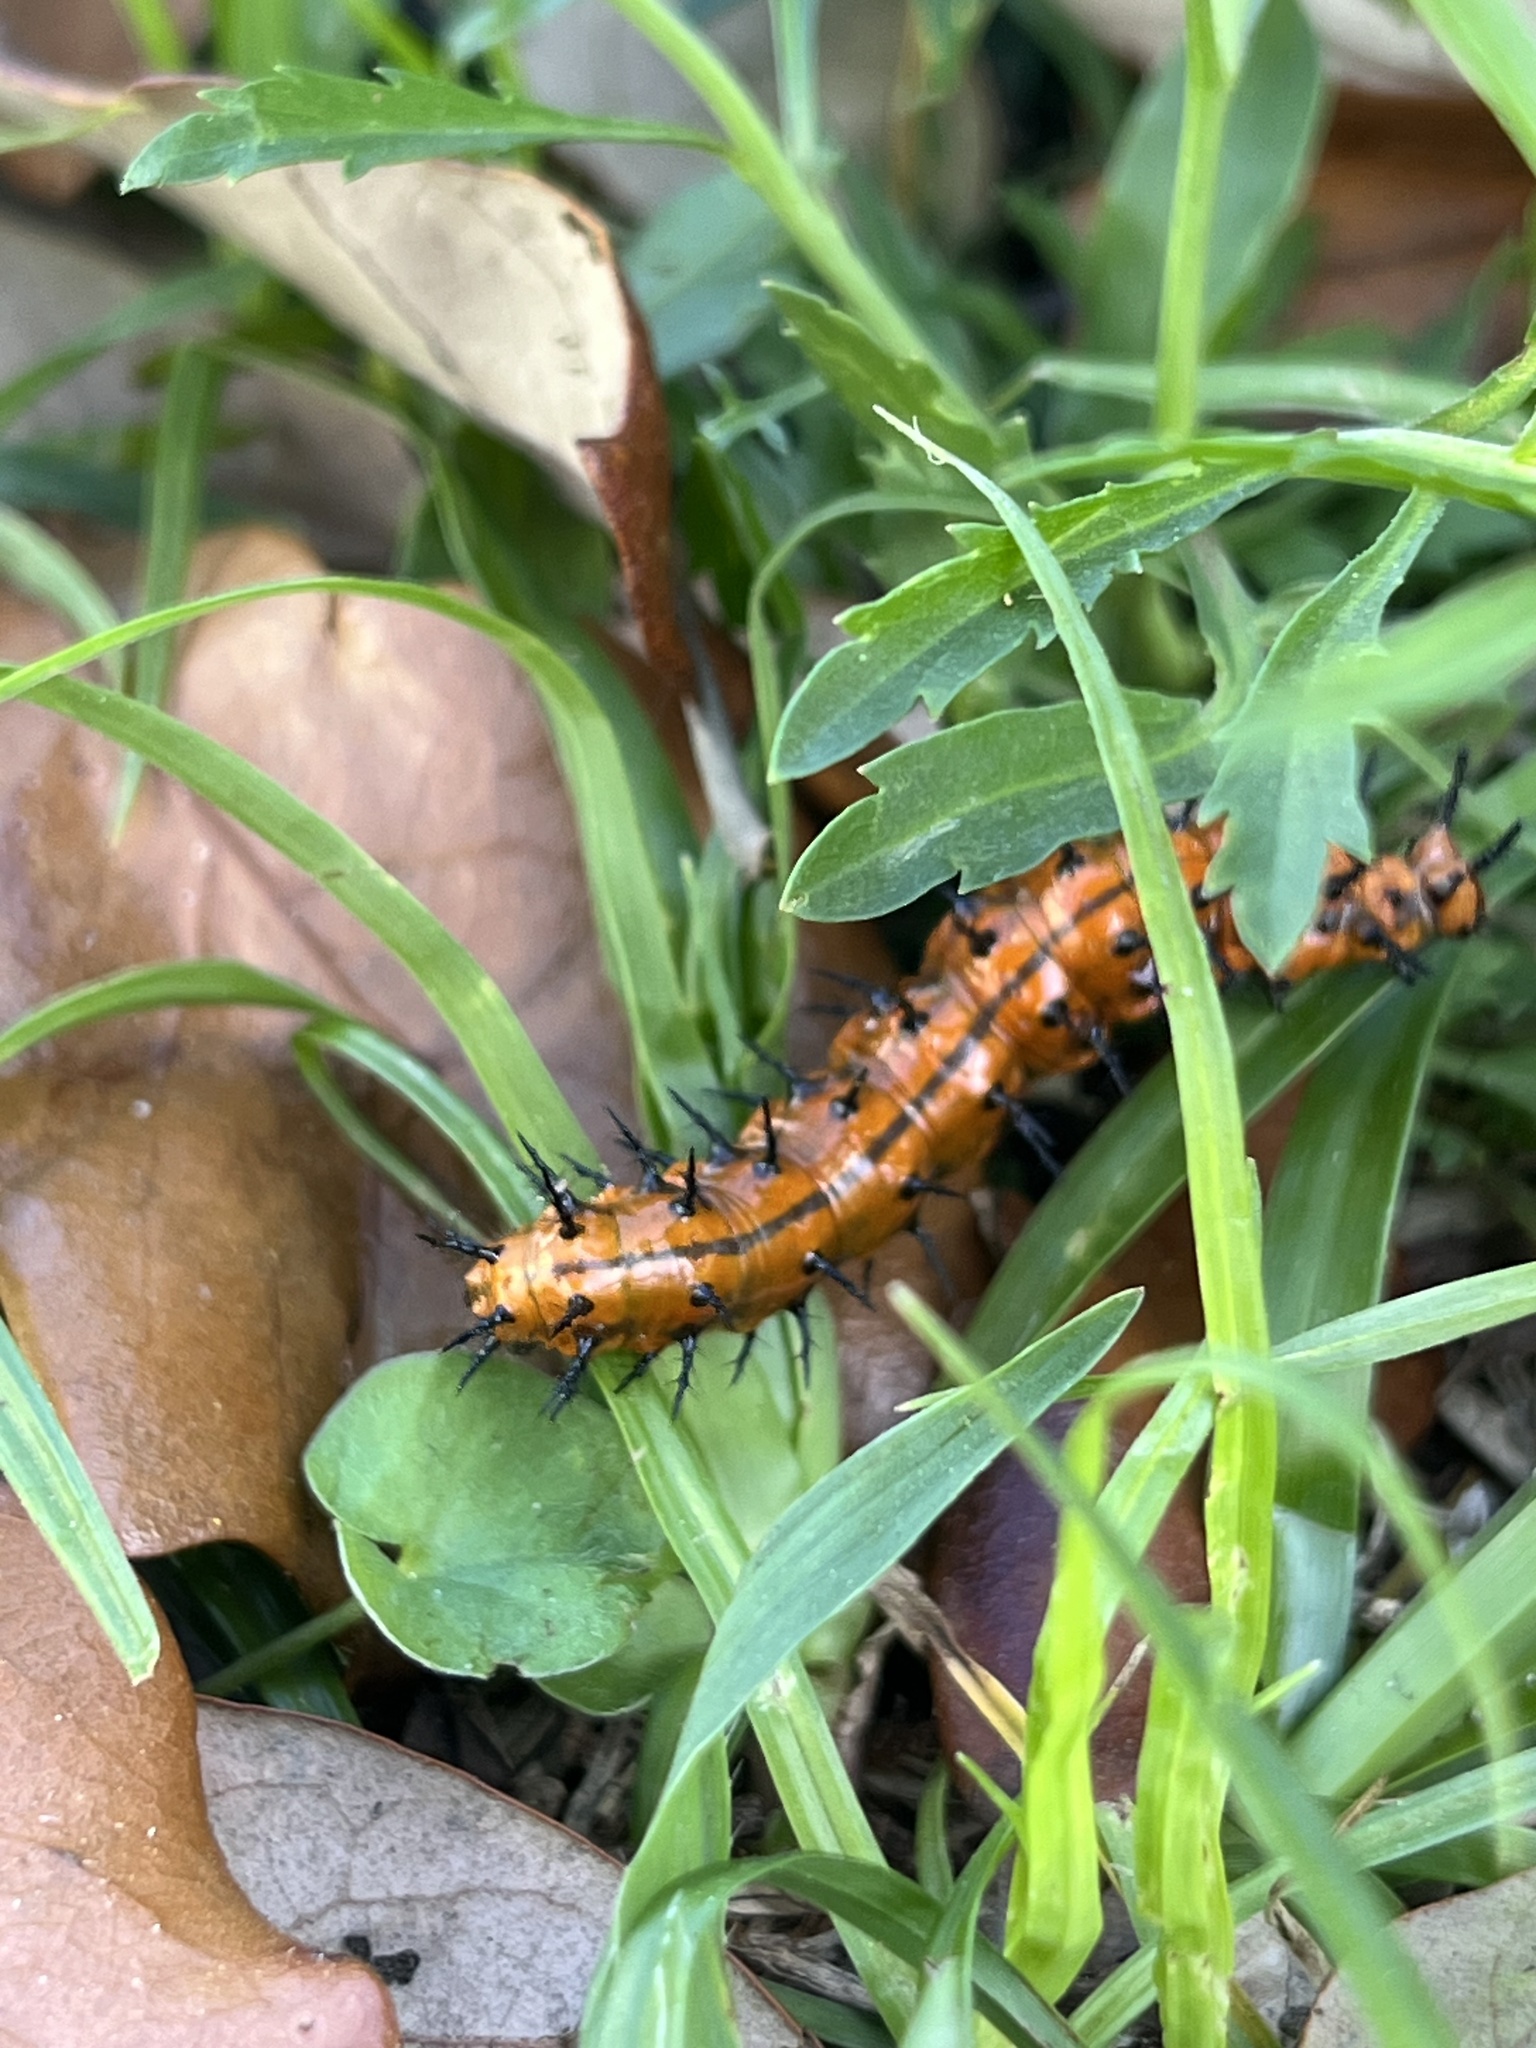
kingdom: Animalia
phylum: Arthropoda
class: Insecta
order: Lepidoptera
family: Nymphalidae
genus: Dione
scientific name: Dione vanillae
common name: Gulf fritillary
